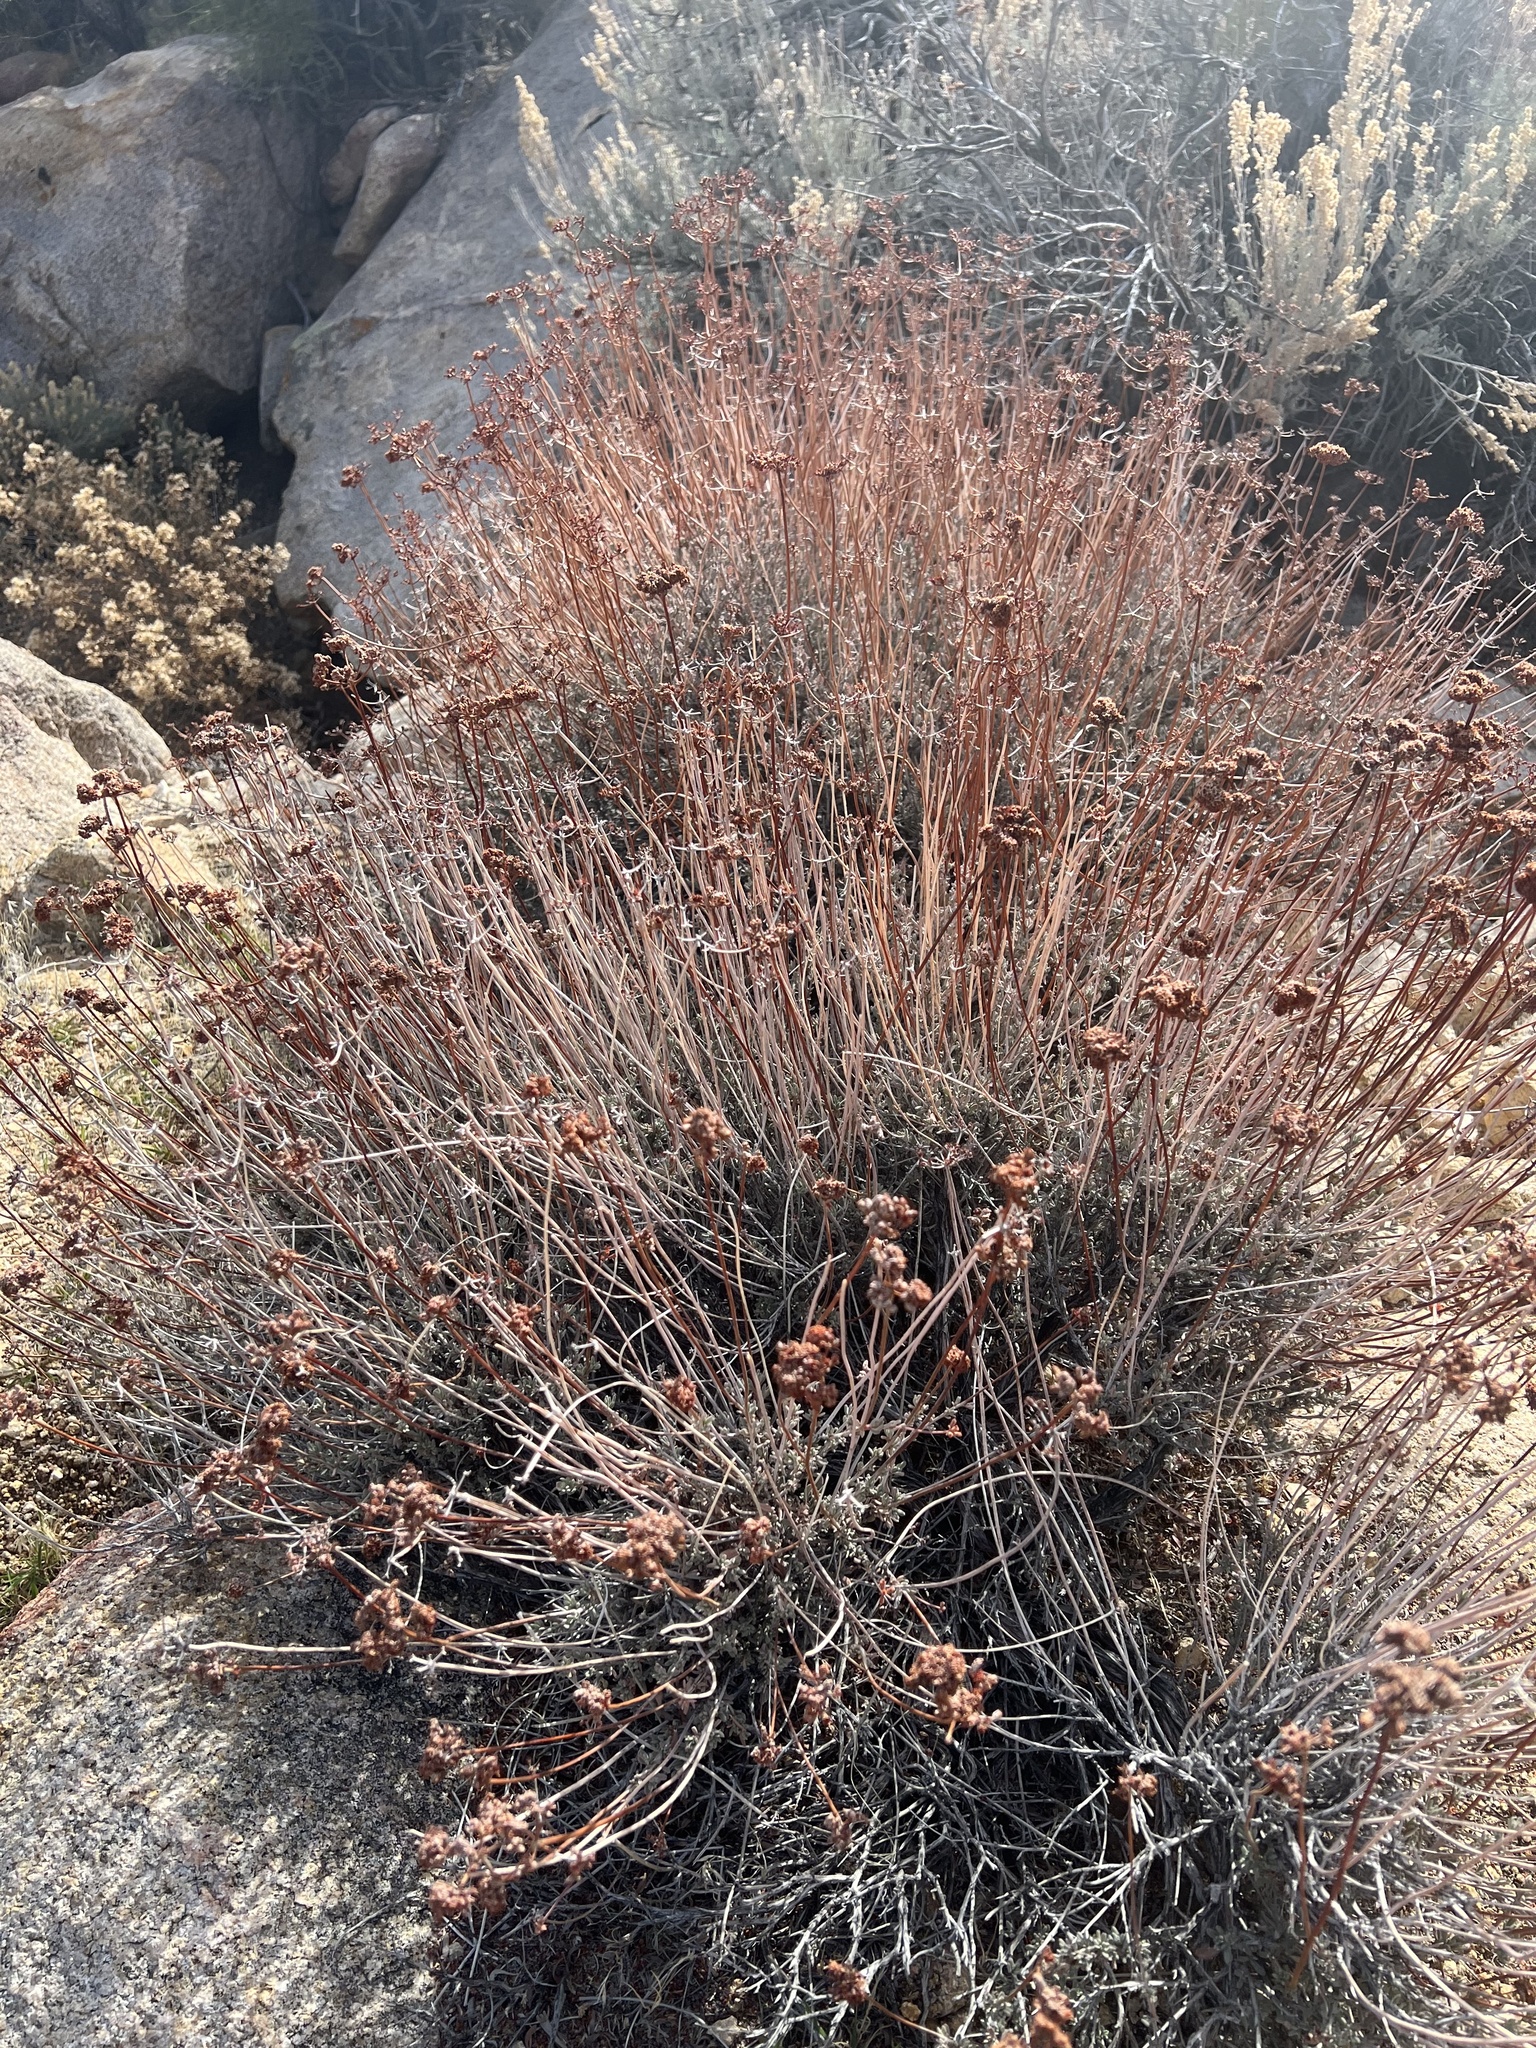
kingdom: Plantae
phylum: Tracheophyta
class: Magnoliopsida
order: Caryophyllales
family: Polygonaceae
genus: Eriogonum
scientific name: Eriogonum fasciculatum
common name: California wild buckwheat
